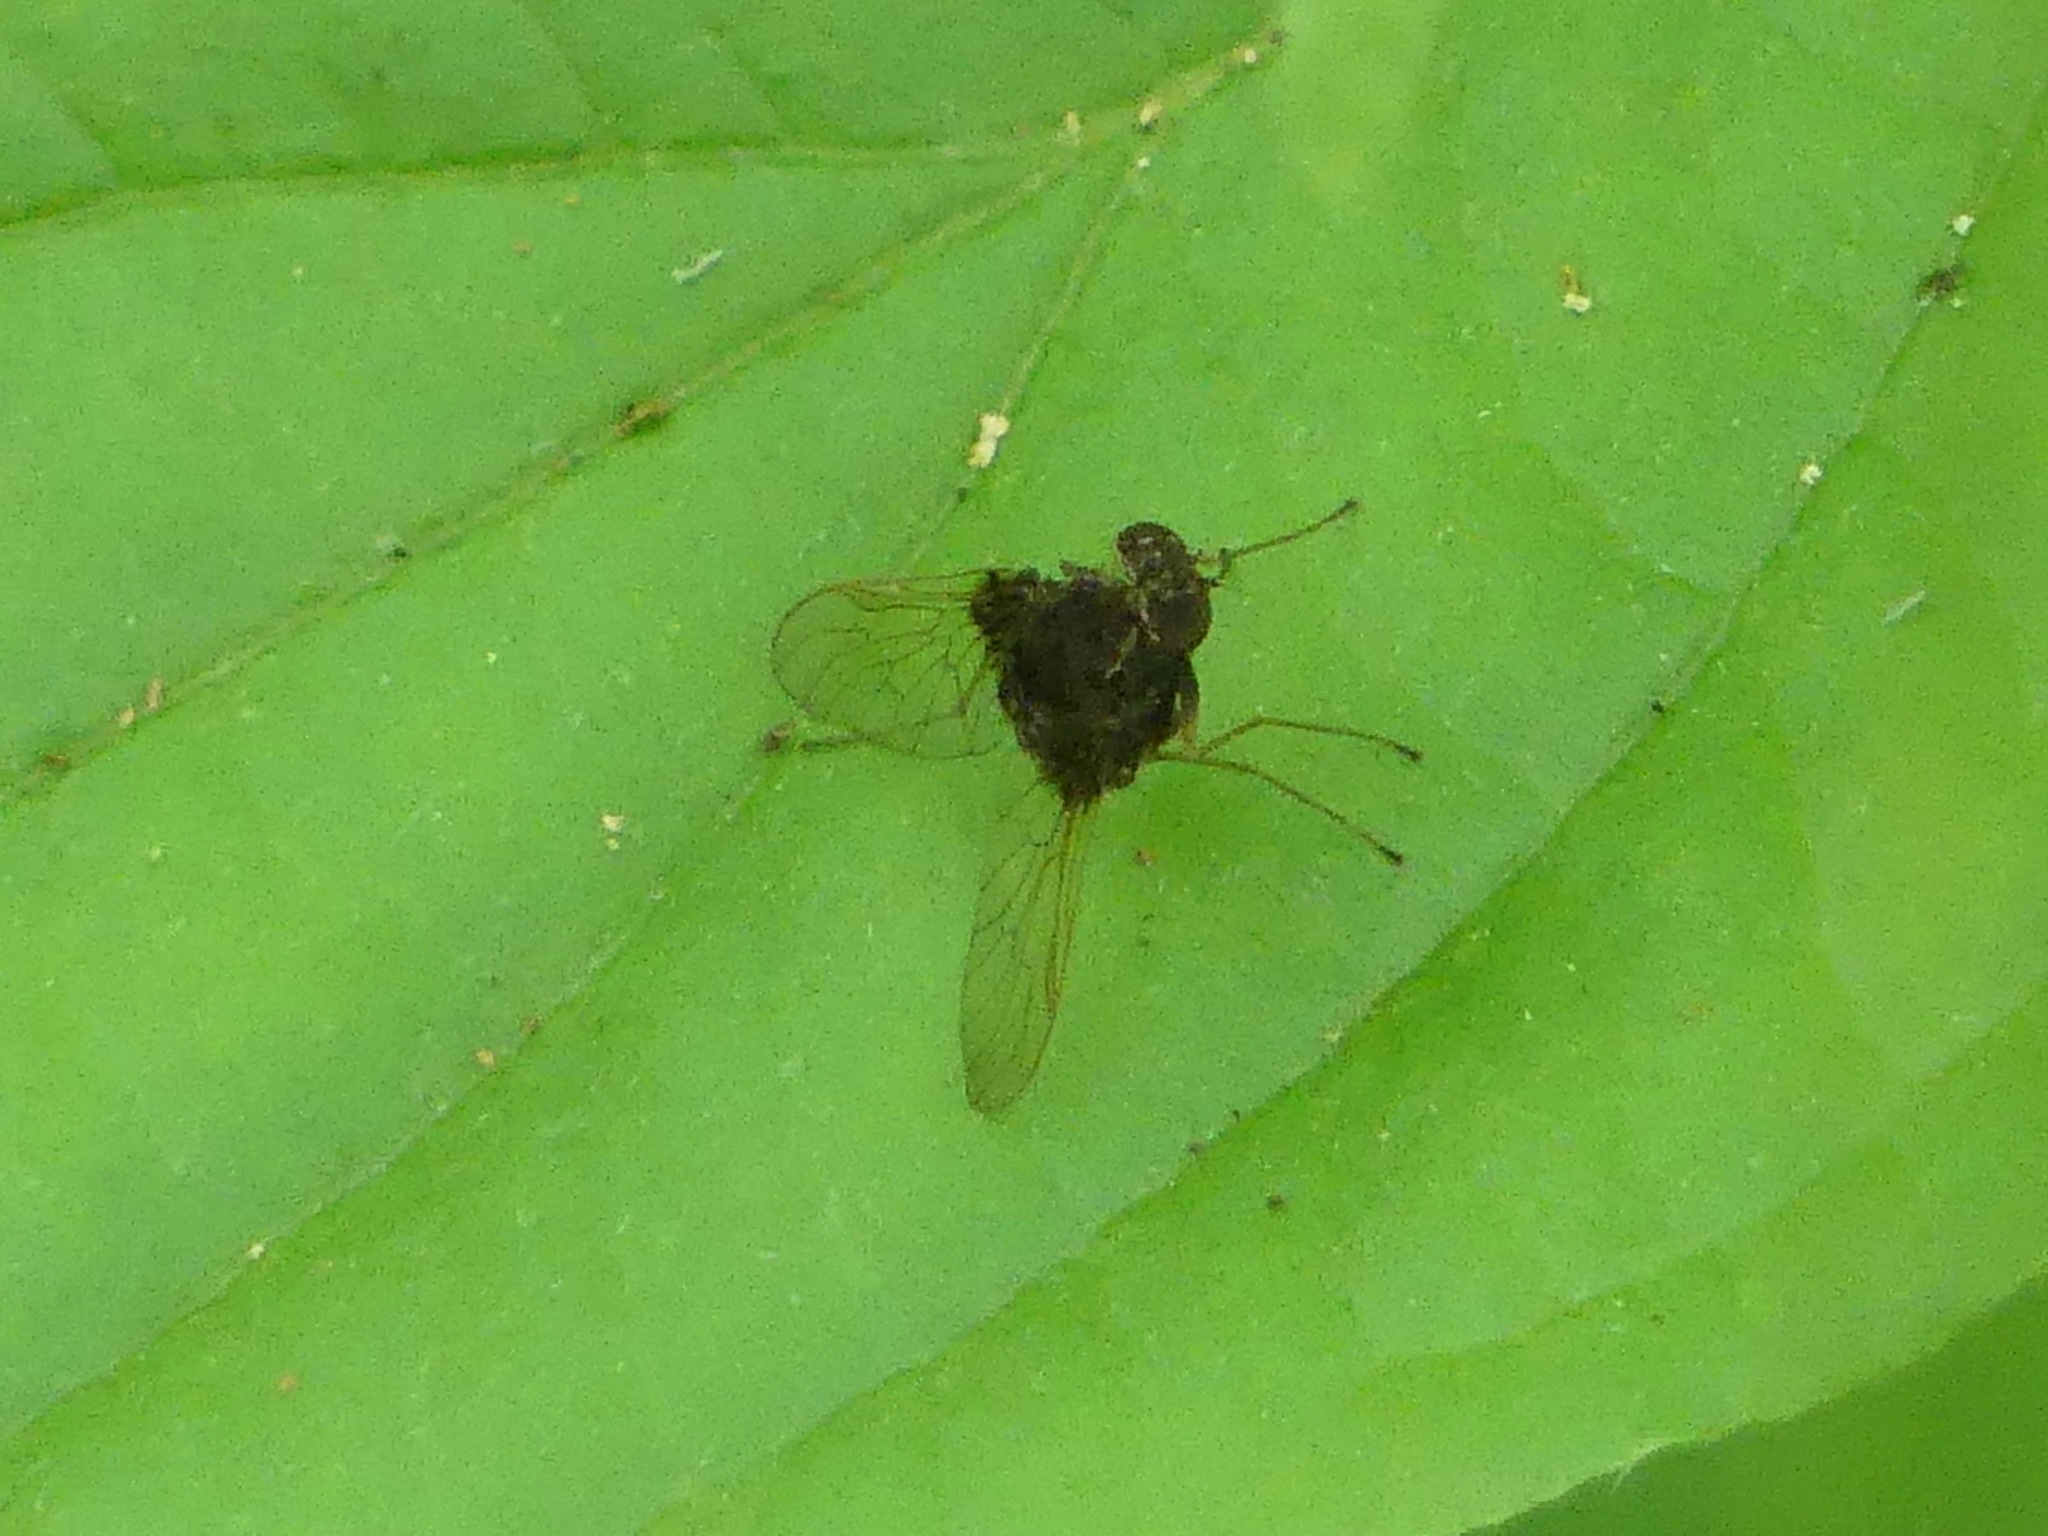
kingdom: Animalia
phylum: Arthropoda
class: Insecta
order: Diptera
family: Rhagionidae
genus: Chrysopilus
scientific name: Chrysopilus basilaris
